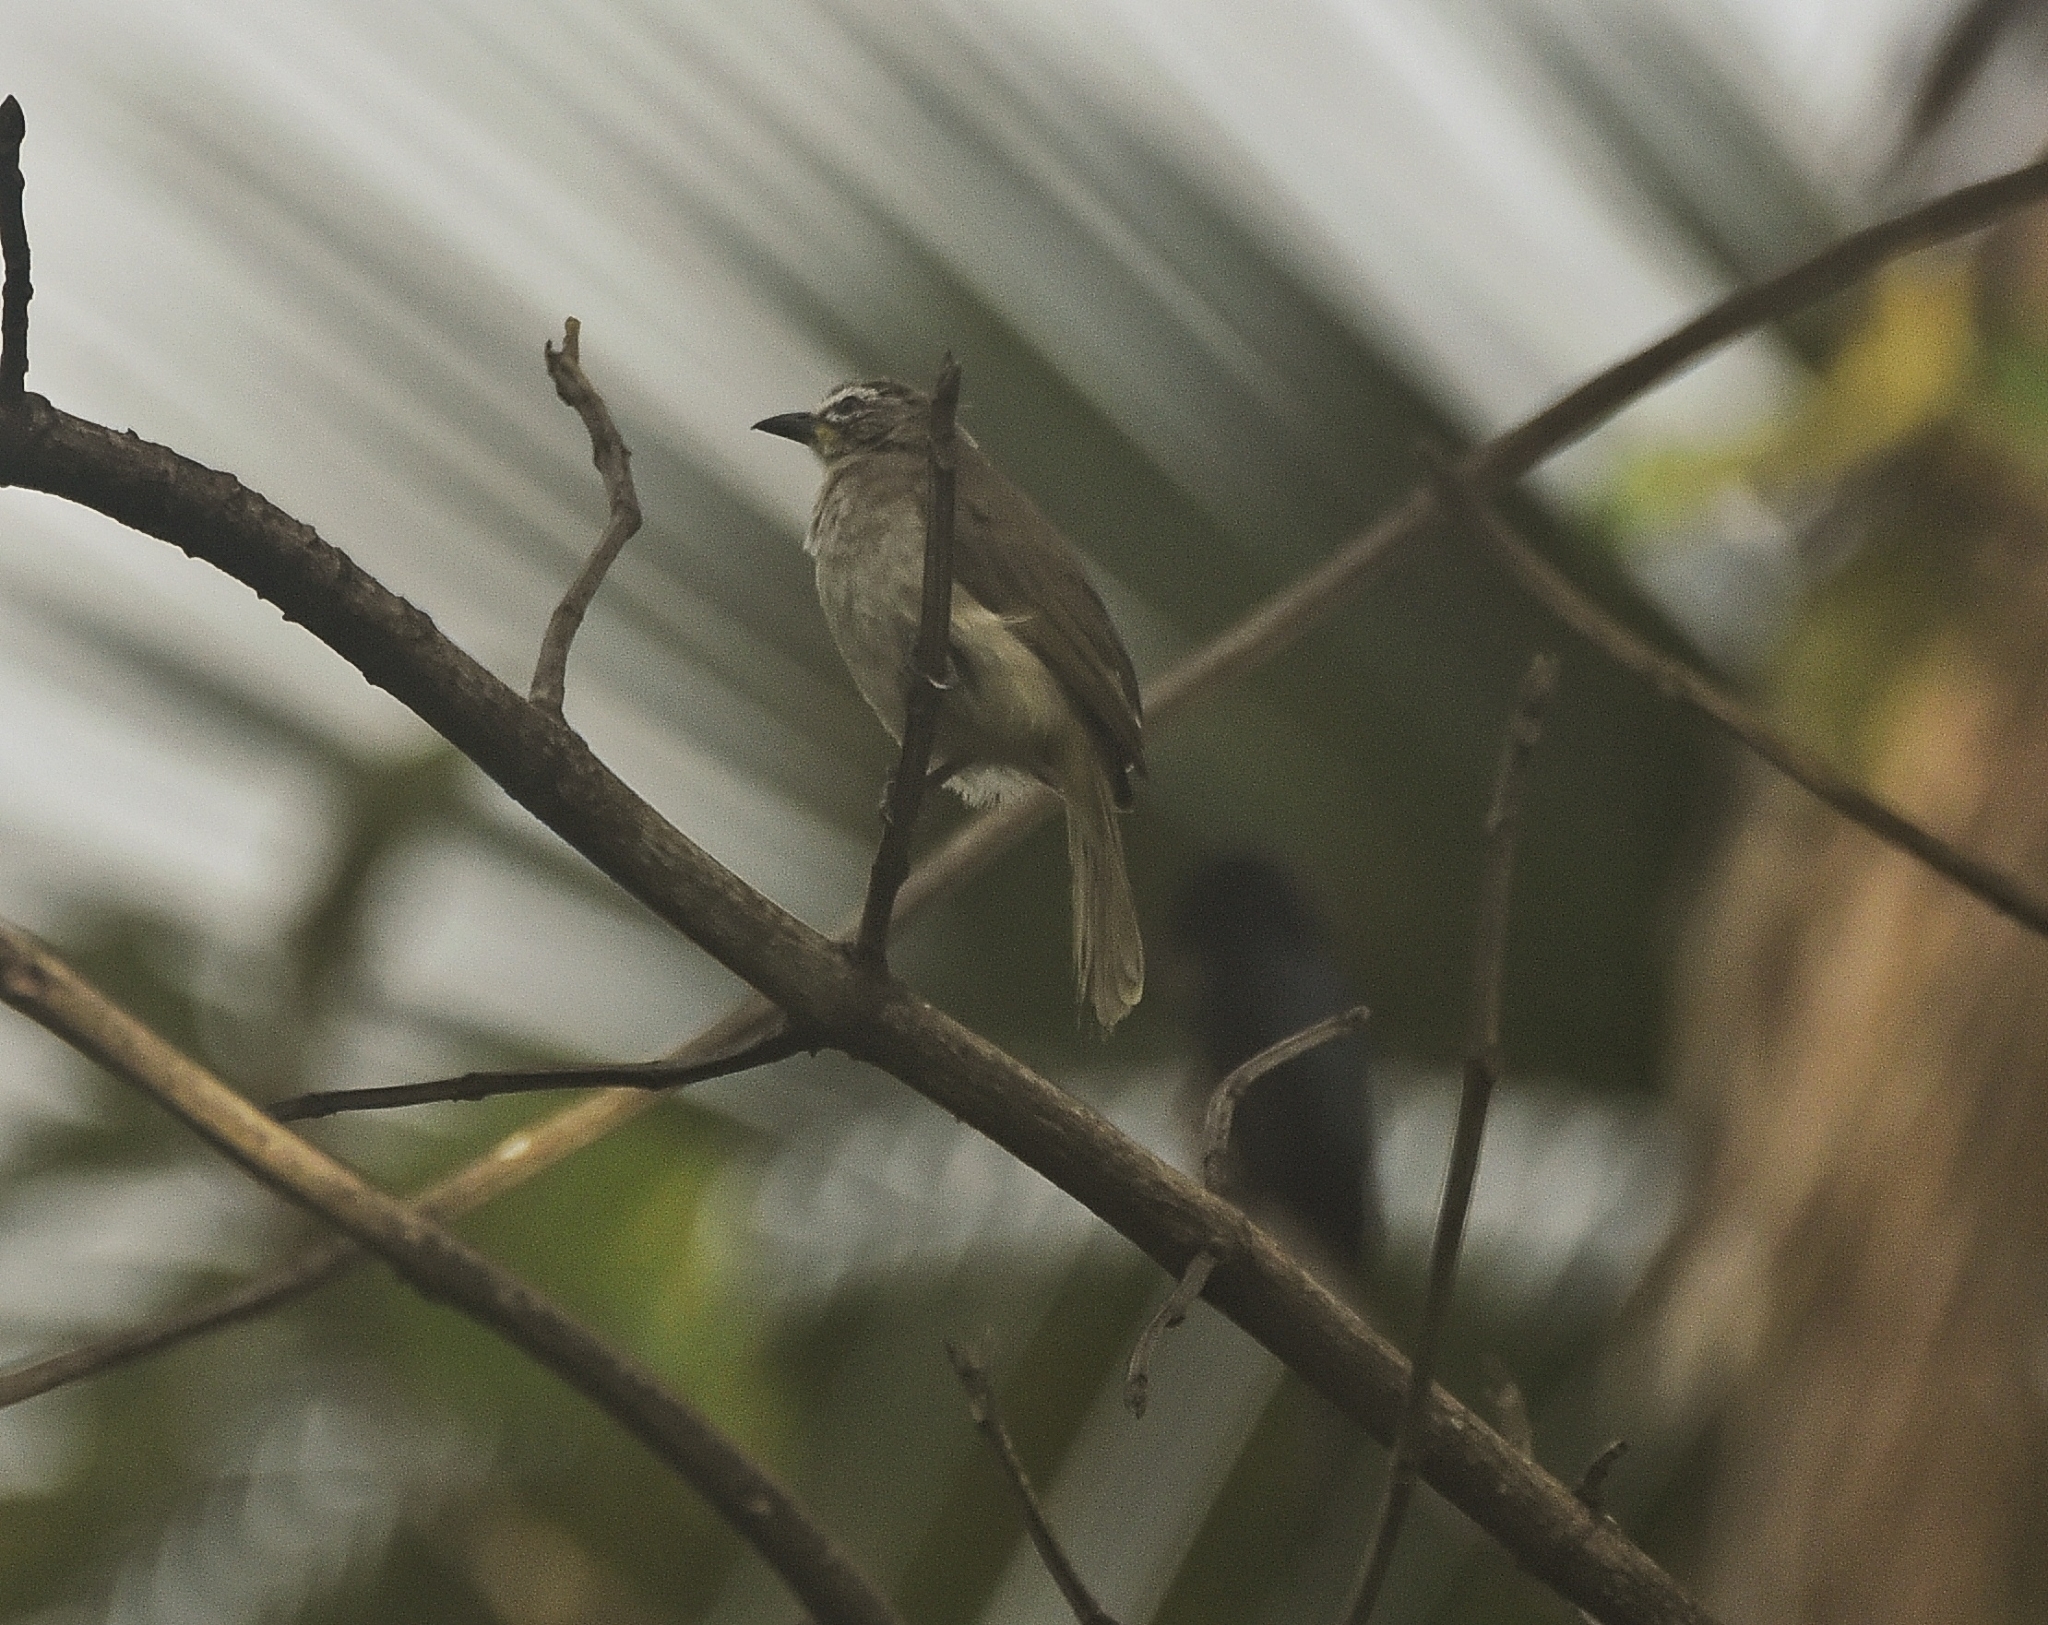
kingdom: Animalia
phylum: Chordata
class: Aves
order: Passeriformes
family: Pycnonotidae
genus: Pycnonotus
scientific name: Pycnonotus luteolus
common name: White-browed bulbul
